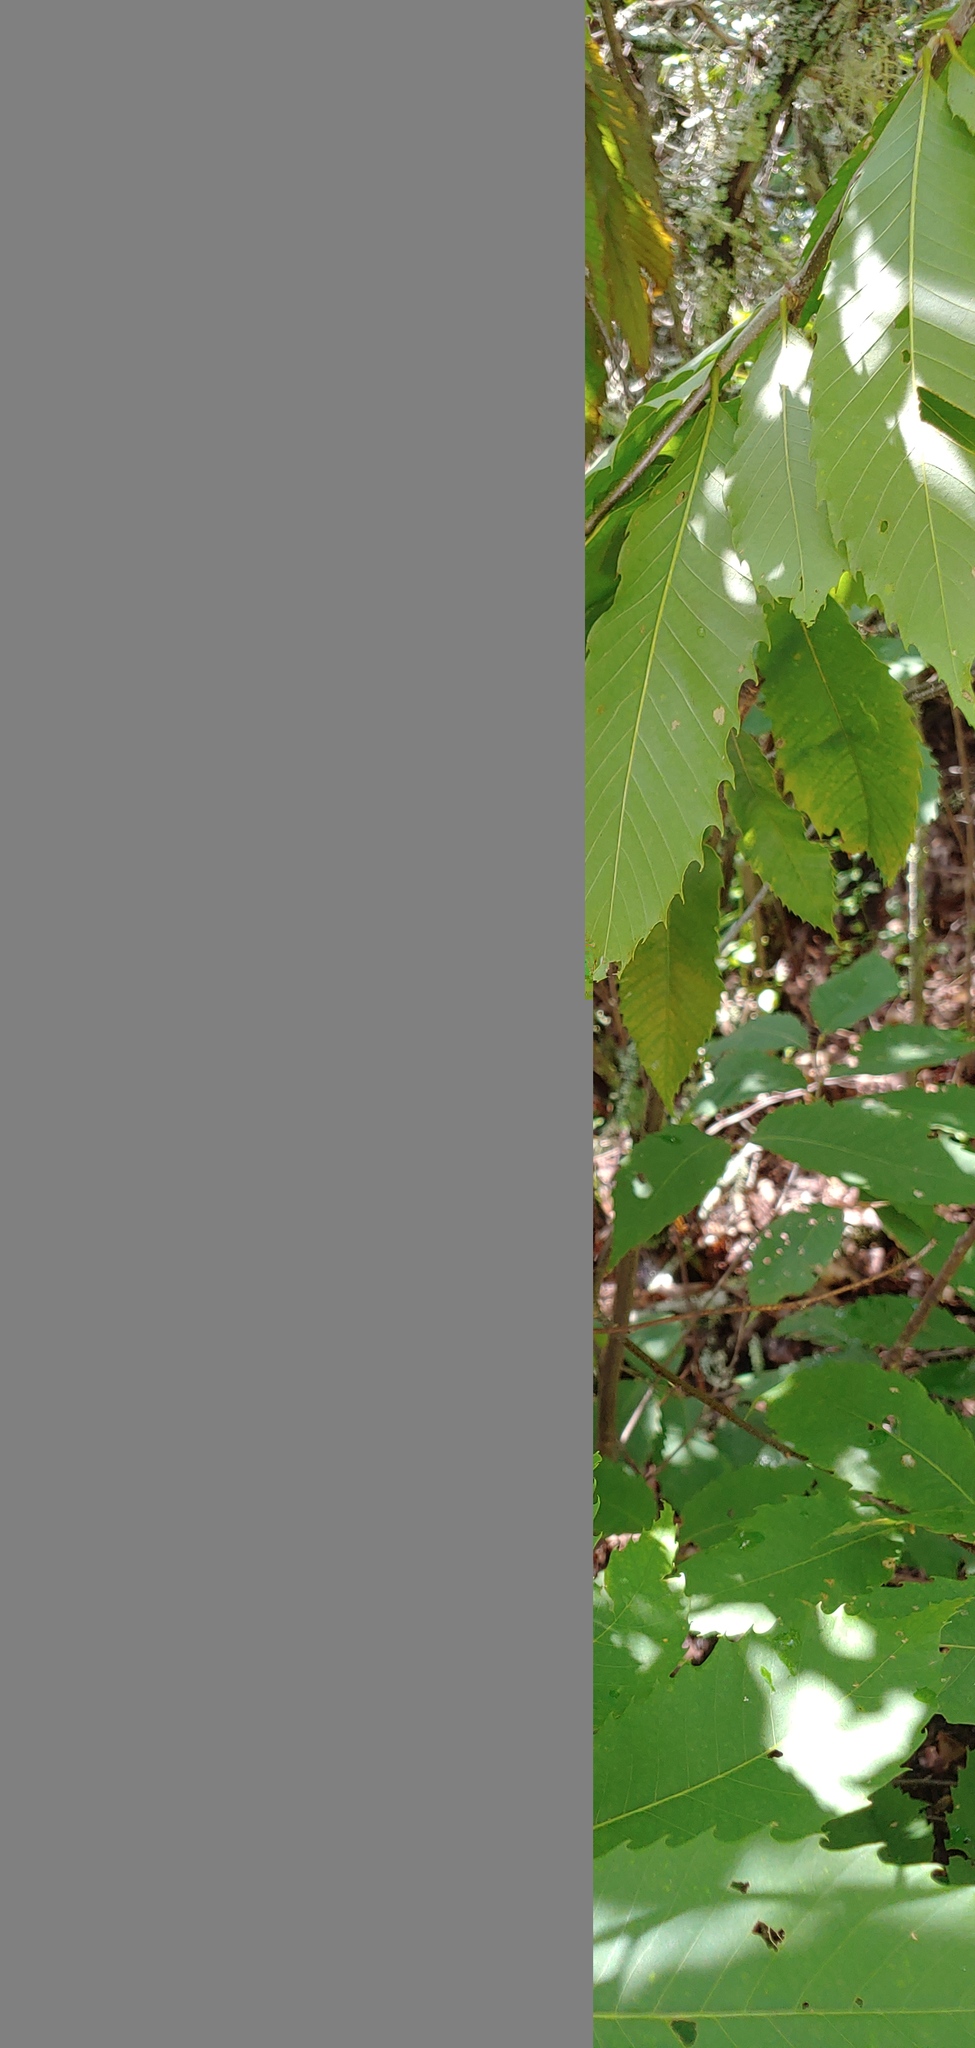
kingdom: Plantae
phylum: Tracheophyta
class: Magnoliopsida
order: Fagales
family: Fagaceae
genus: Castanea
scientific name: Castanea dentata
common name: American chestnut
